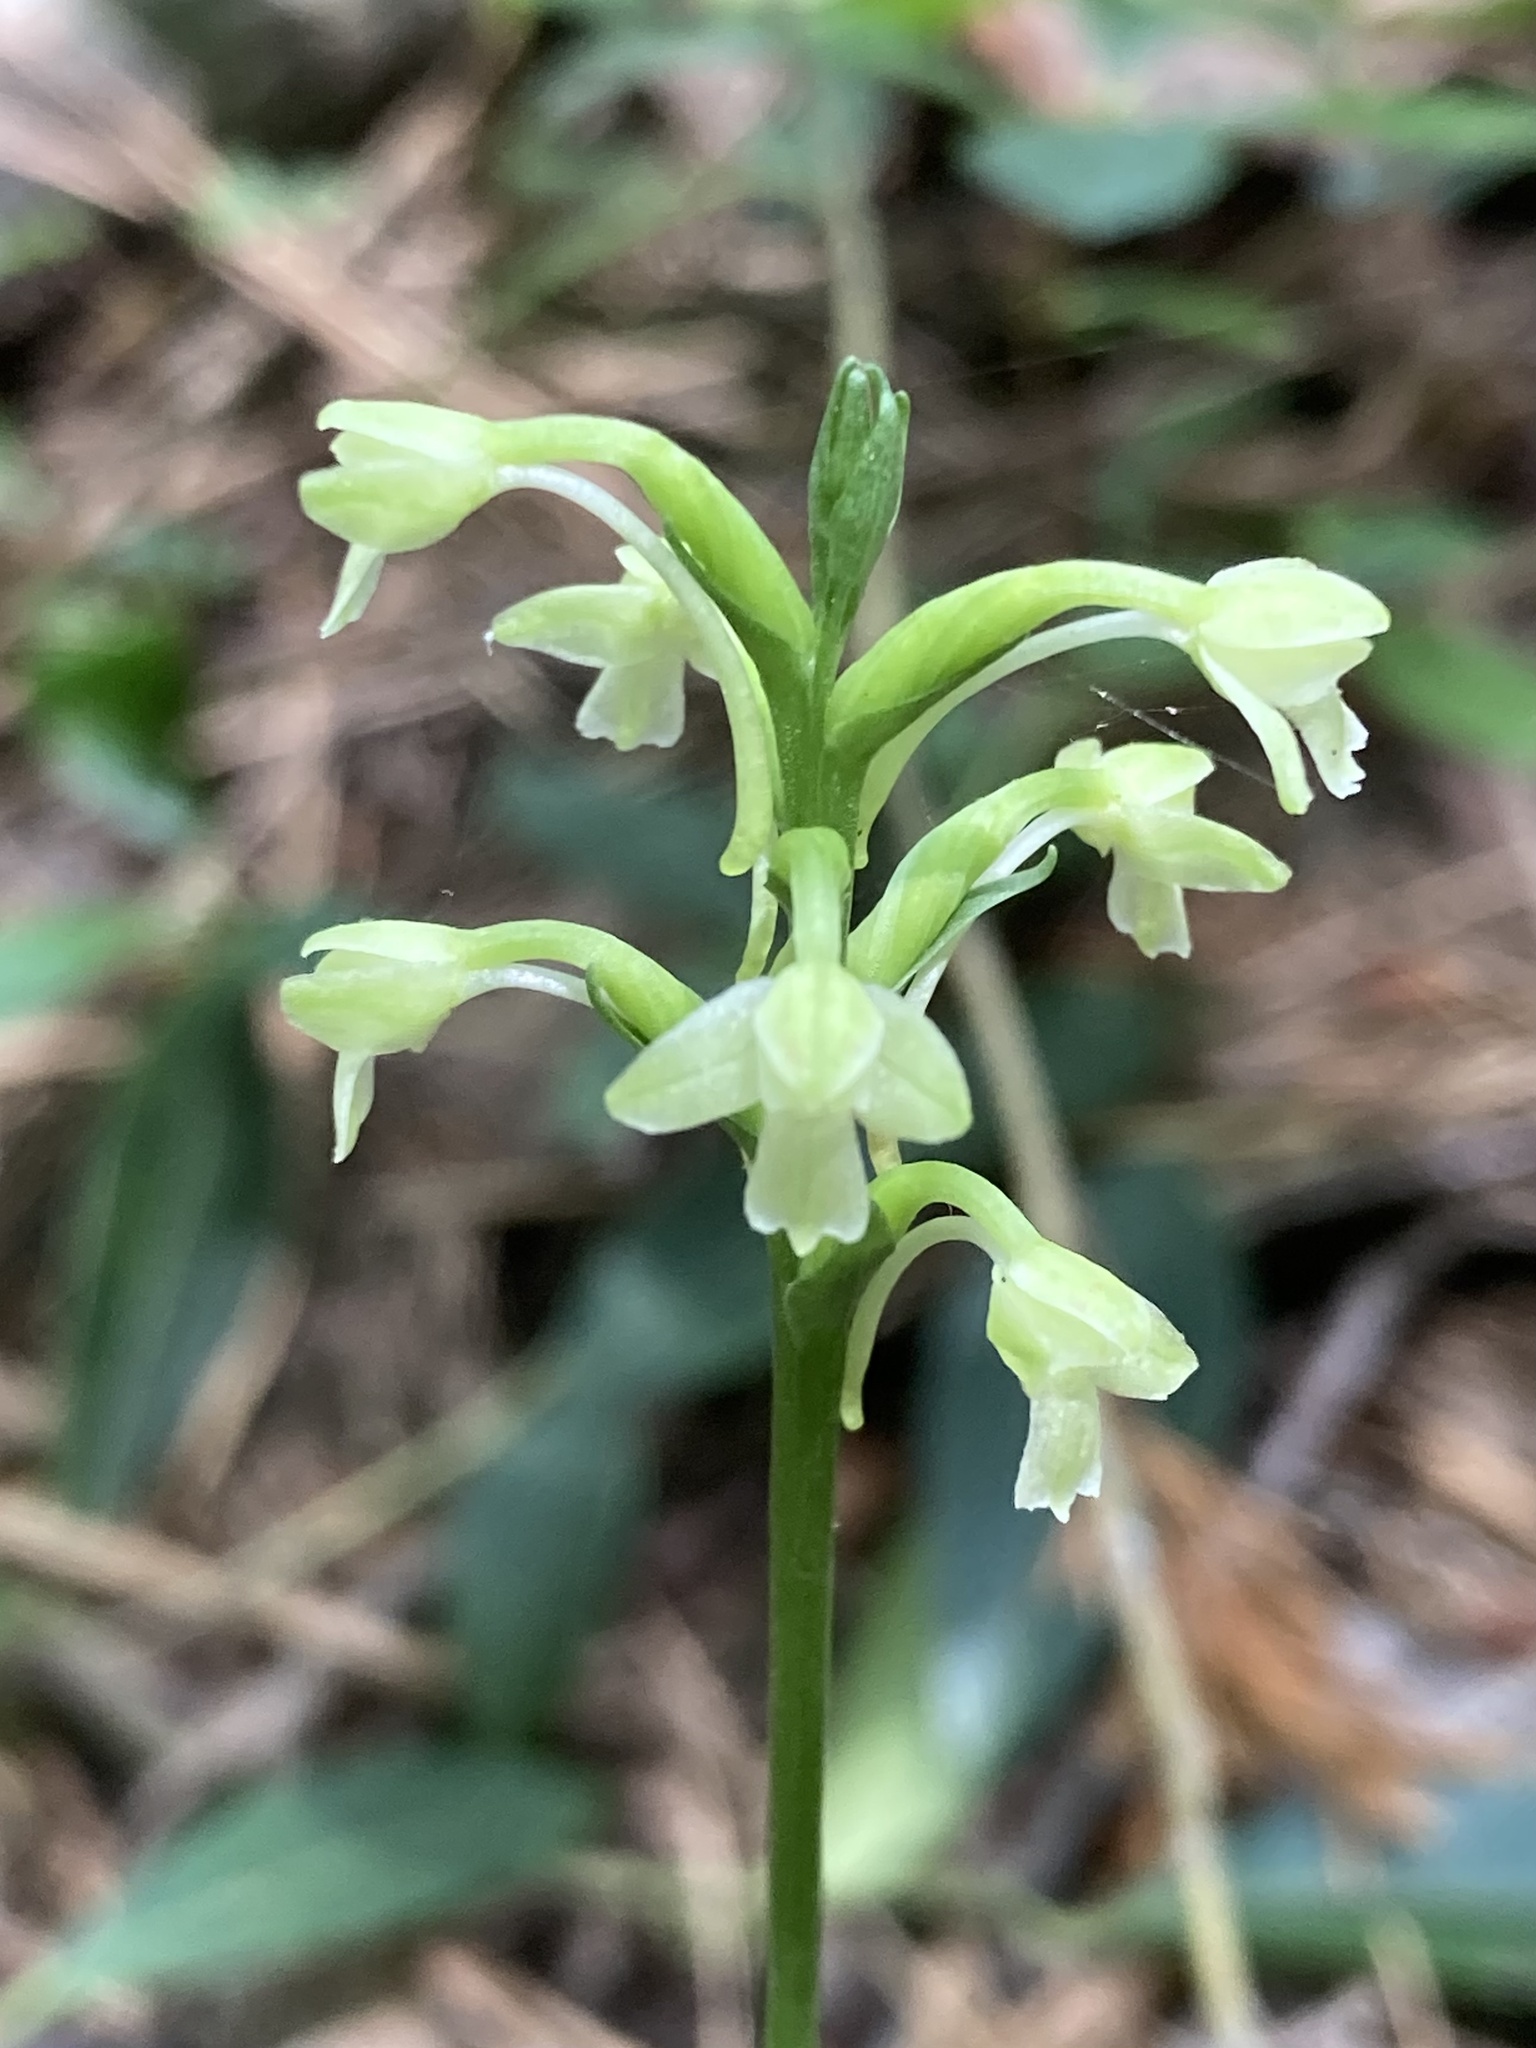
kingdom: Plantae
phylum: Tracheophyta
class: Liliopsida
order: Asparagales
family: Orchidaceae
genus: Platanthera
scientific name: Platanthera clavellata
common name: Club-spur orchid
